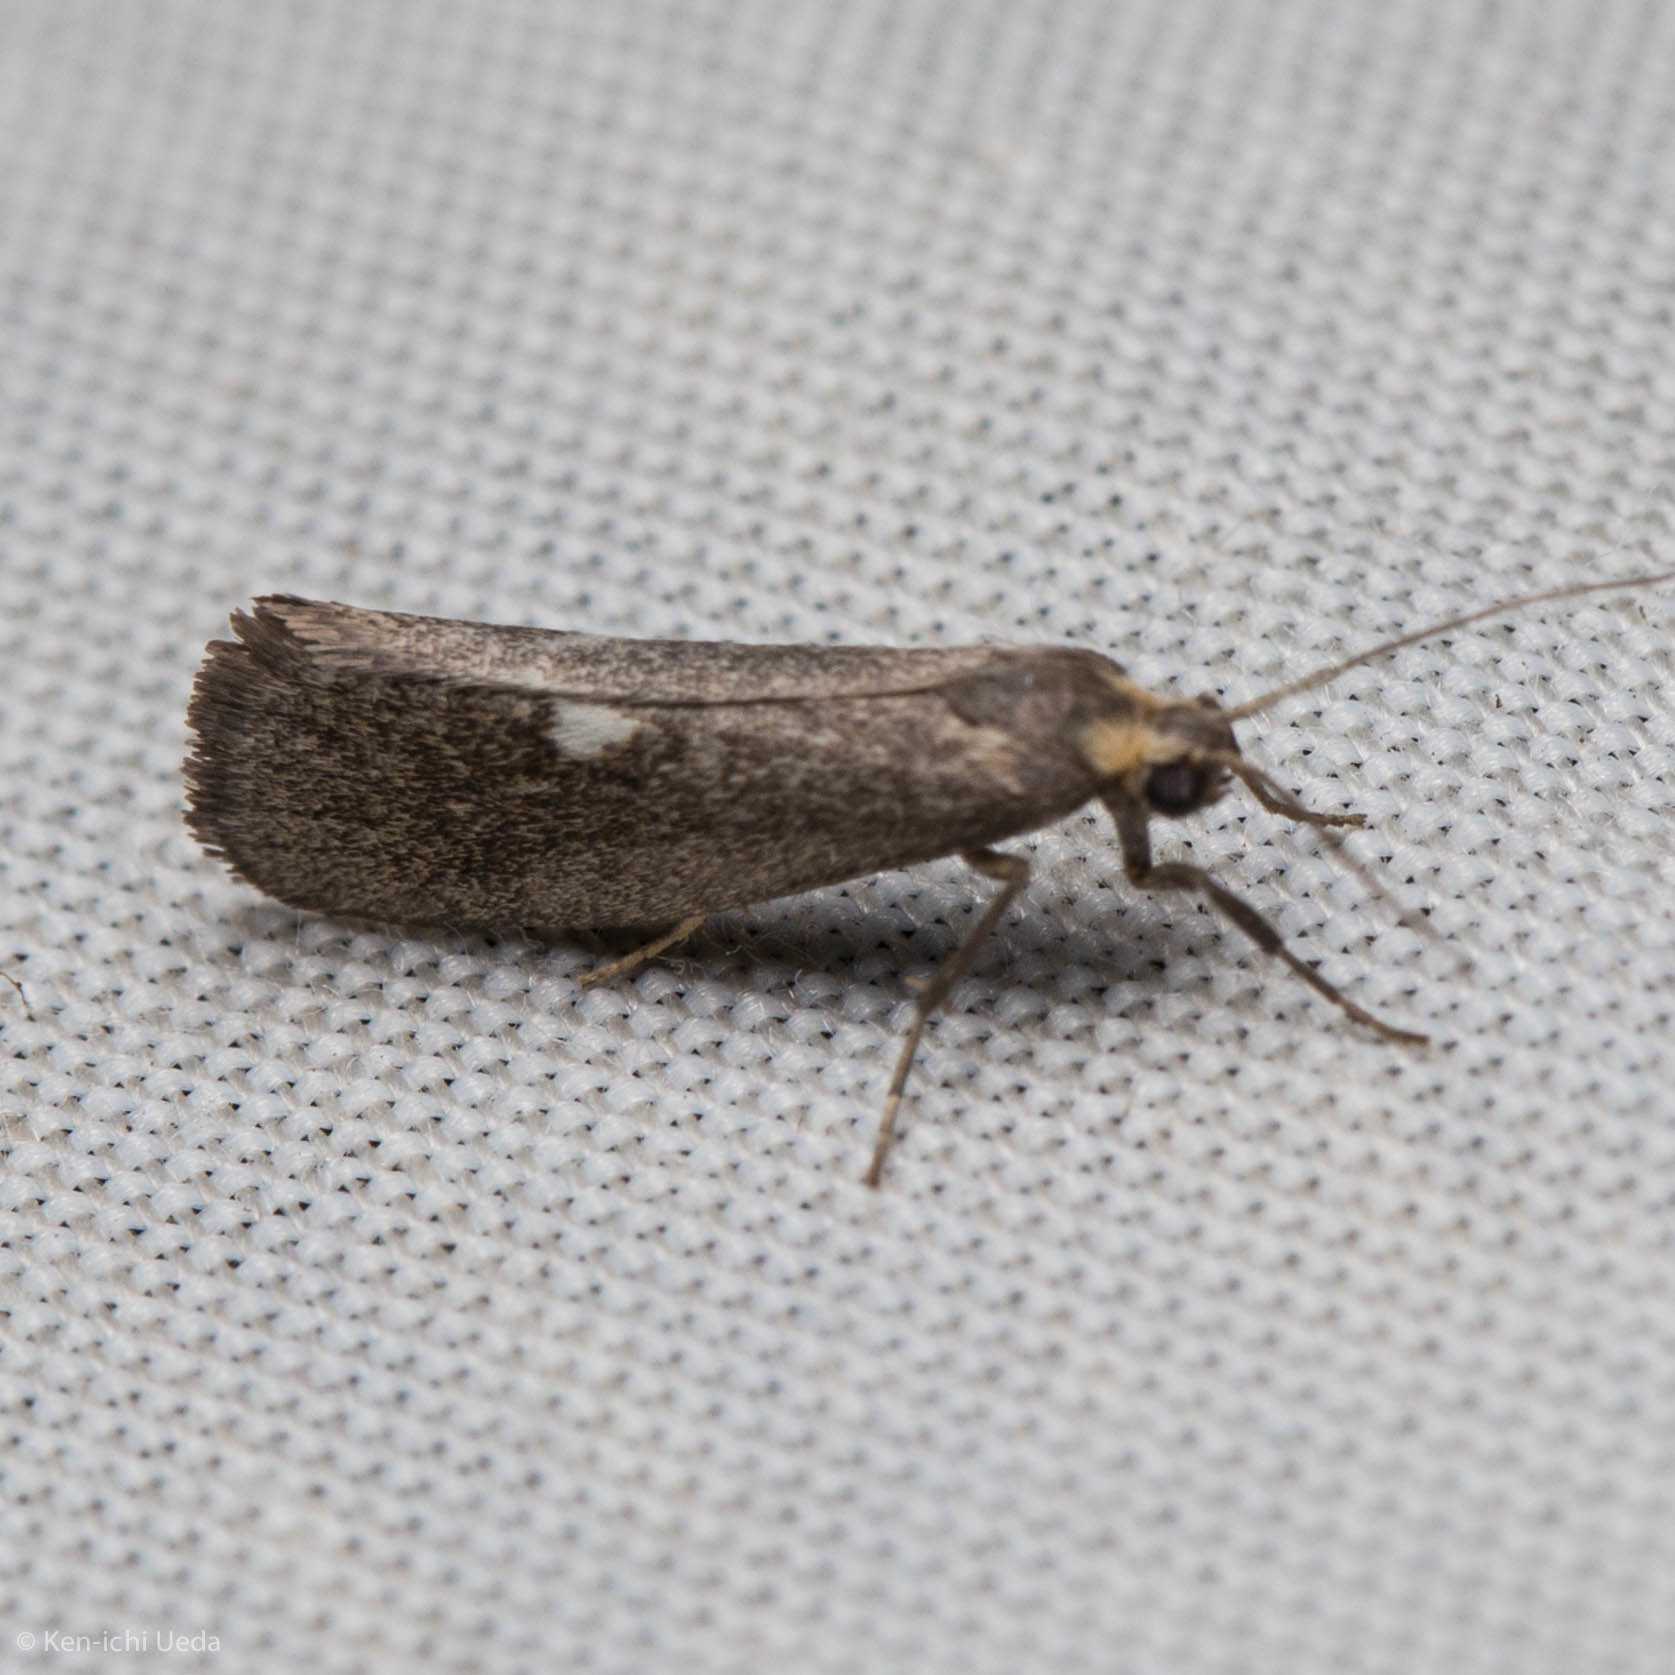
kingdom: Animalia
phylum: Arthropoda
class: Insecta
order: Lepidoptera
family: Erebidae
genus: Cisthene
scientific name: Cisthene liberomacula
